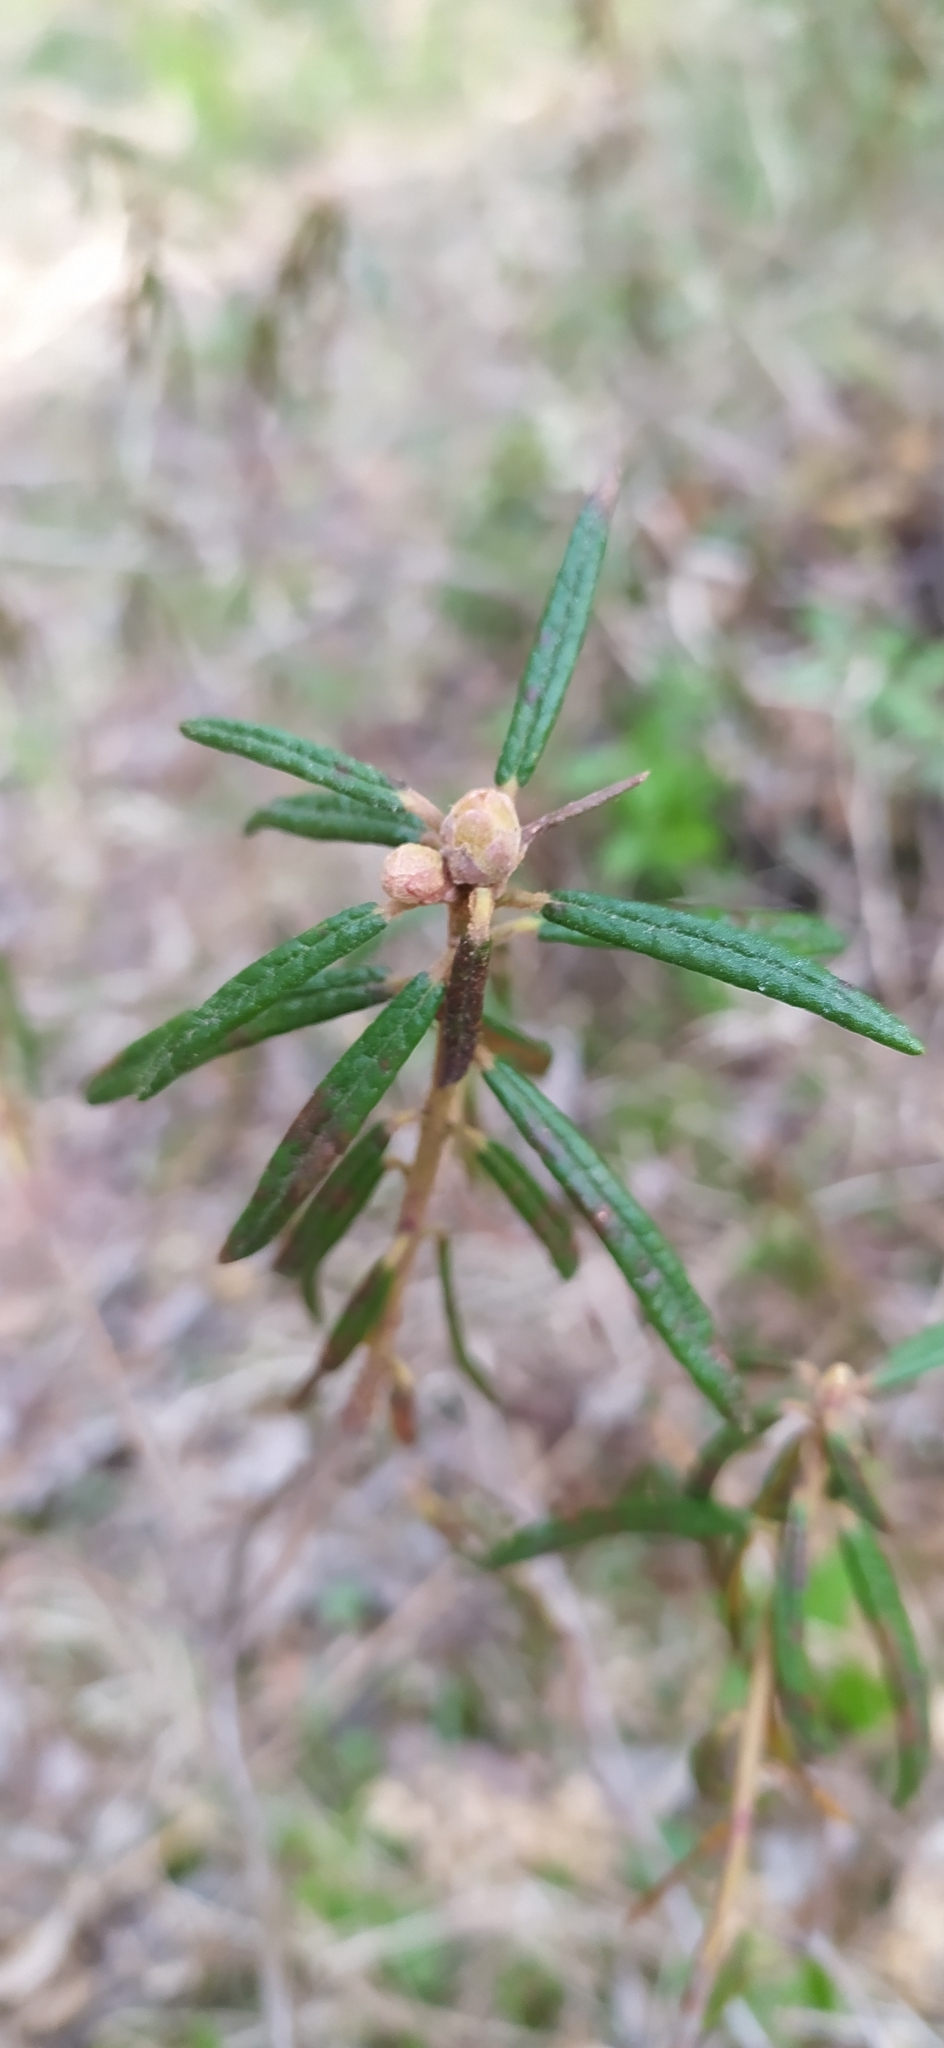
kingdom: Plantae
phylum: Tracheophyta
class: Magnoliopsida
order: Ericales
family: Ericaceae
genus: Rhododendron
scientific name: Rhododendron tomentosum
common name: Marsh labrador tea
